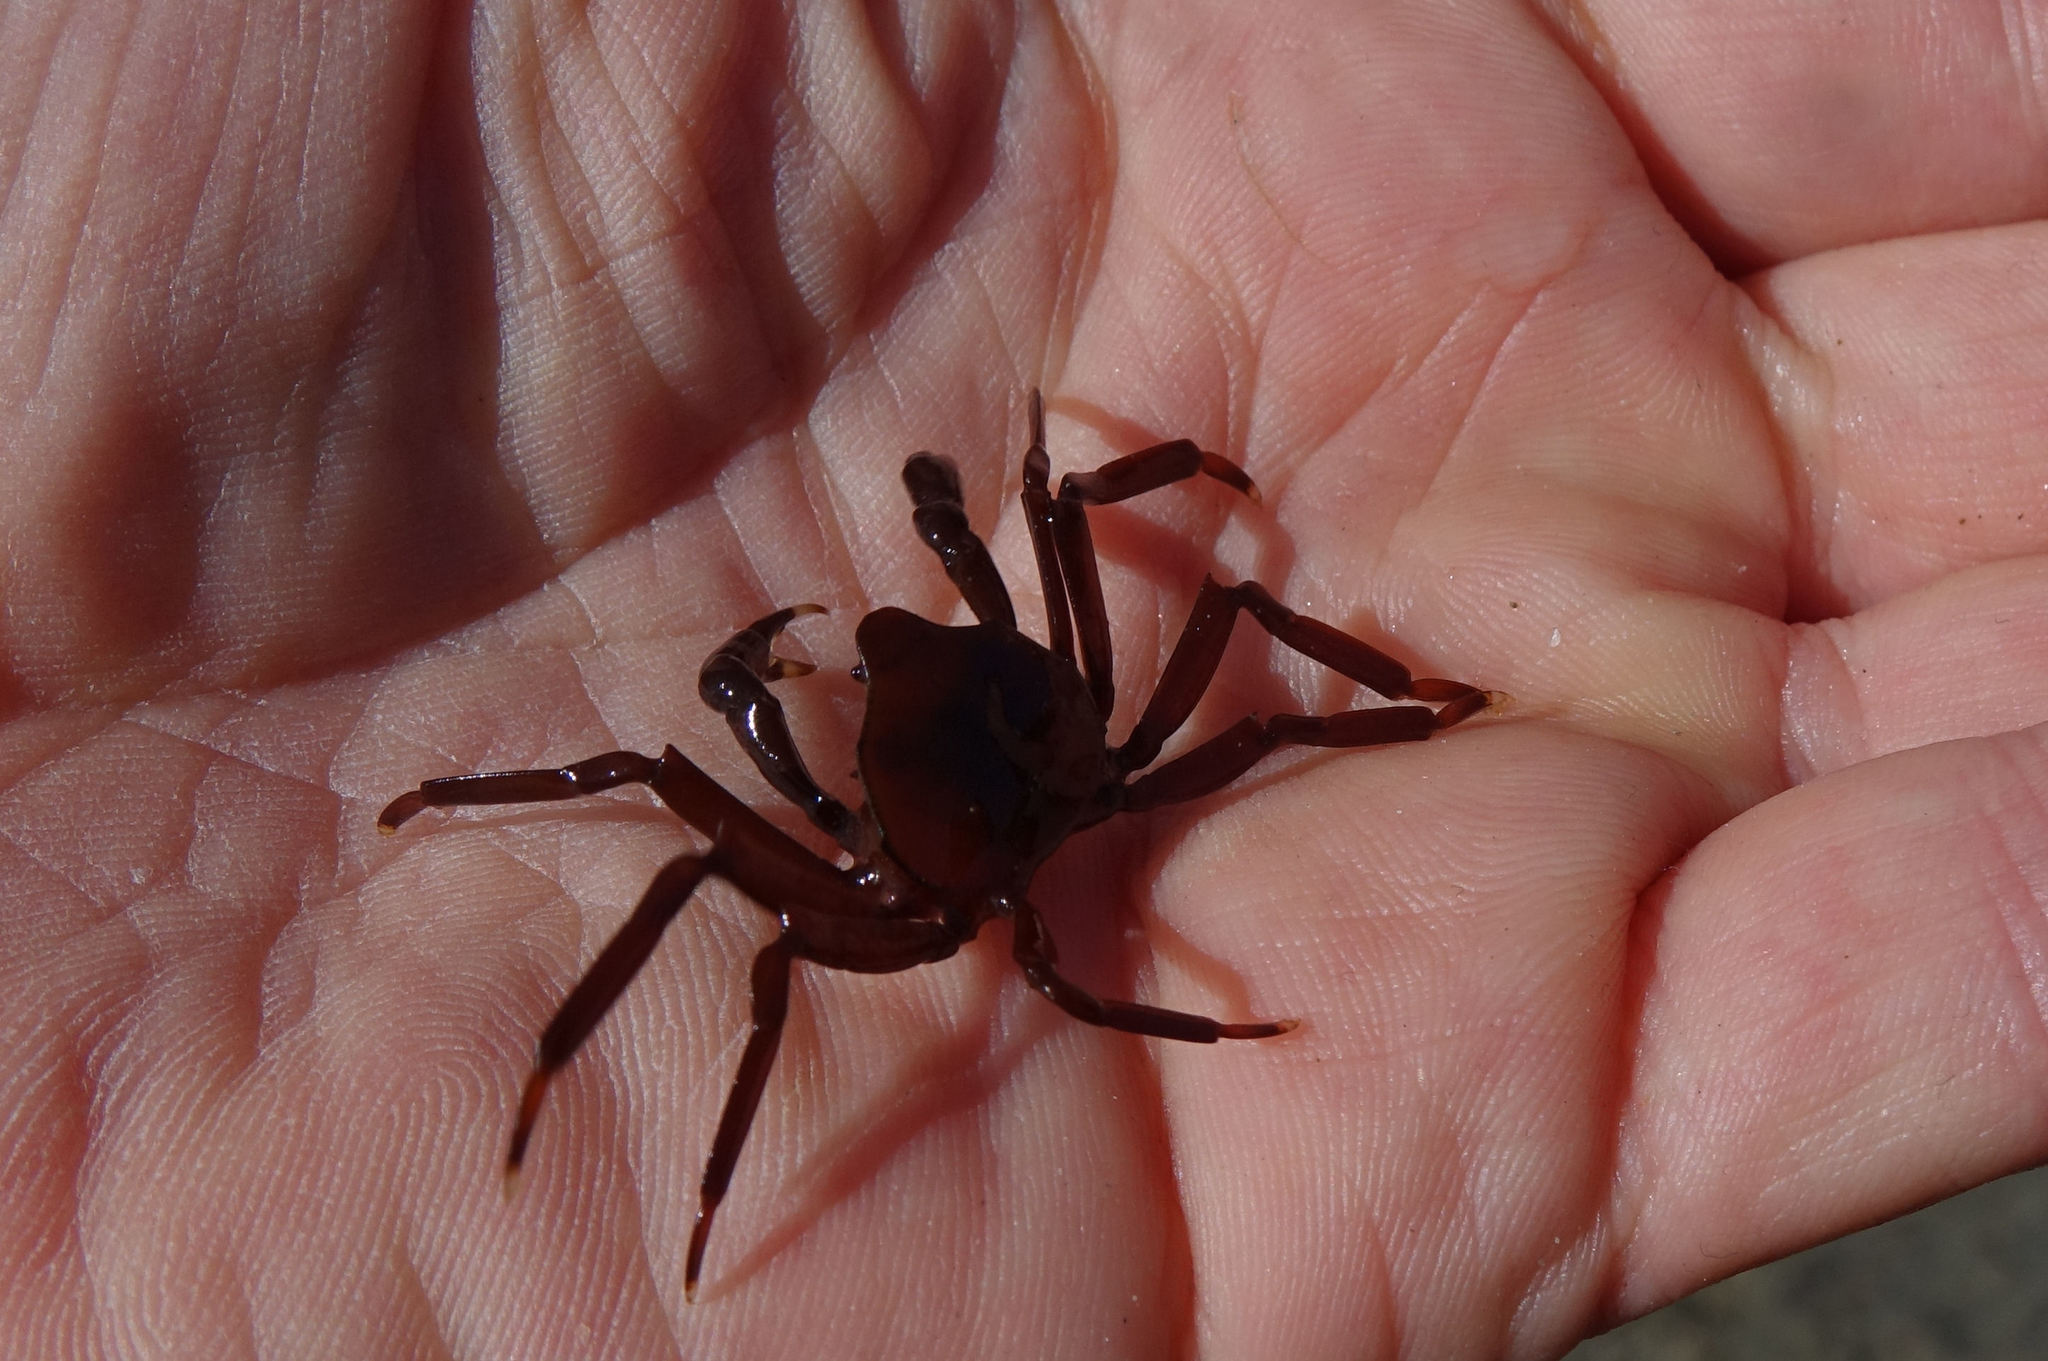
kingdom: Animalia
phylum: Arthropoda
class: Malacostraca
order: Decapoda
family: Hymenosomatidae
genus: Elamena
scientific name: Elamena producta
